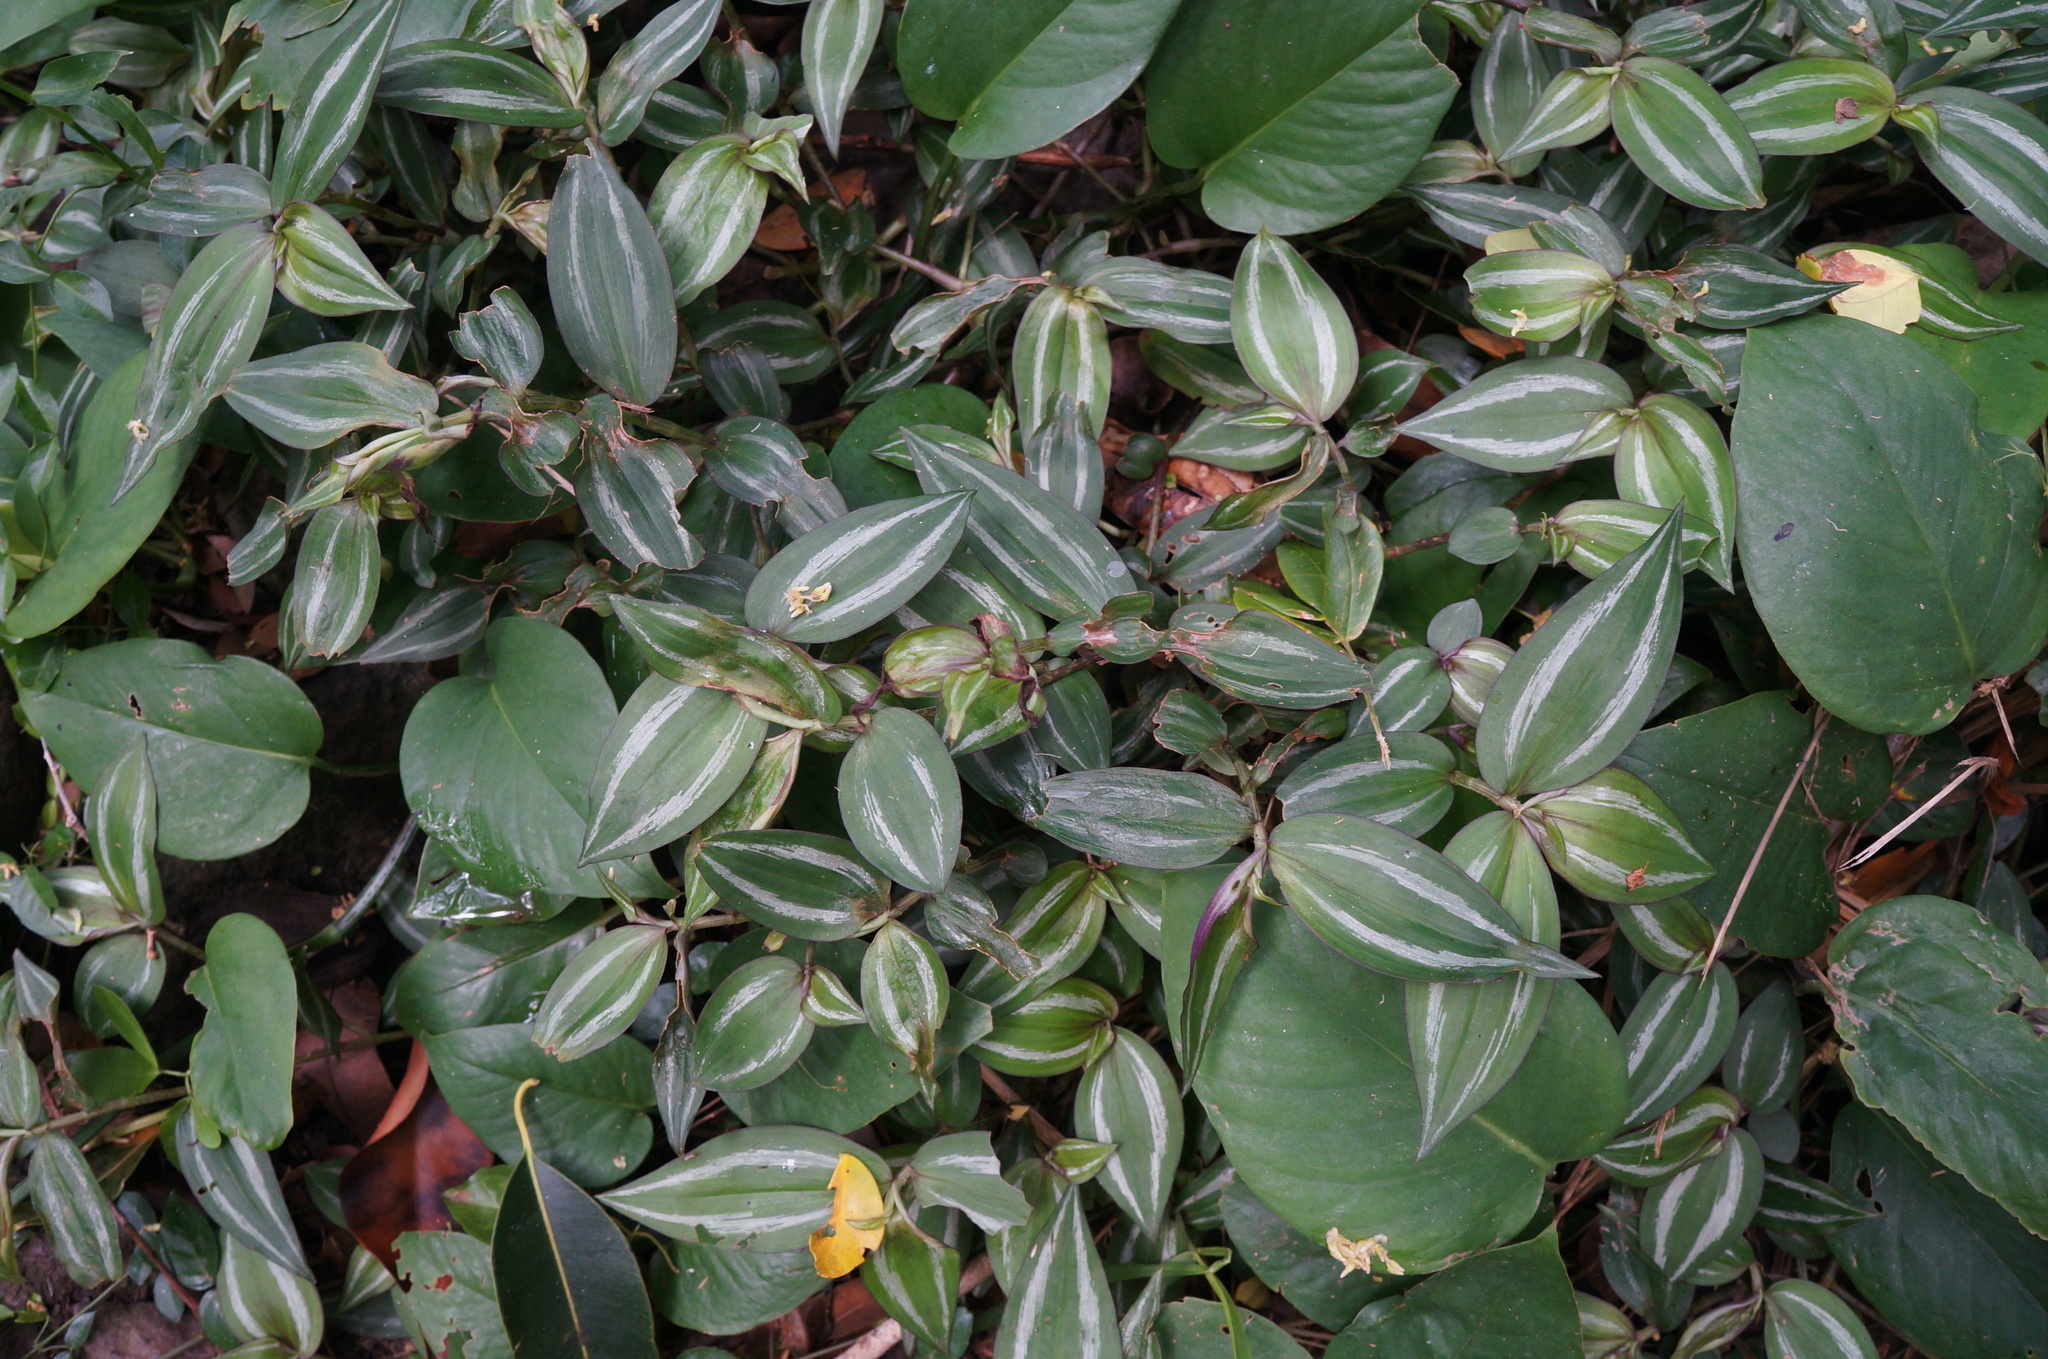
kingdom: Plantae
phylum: Tracheophyta
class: Liliopsida
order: Commelinales
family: Commelinaceae
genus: Tradescantia
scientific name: Tradescantia zebrina
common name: Inchplant
